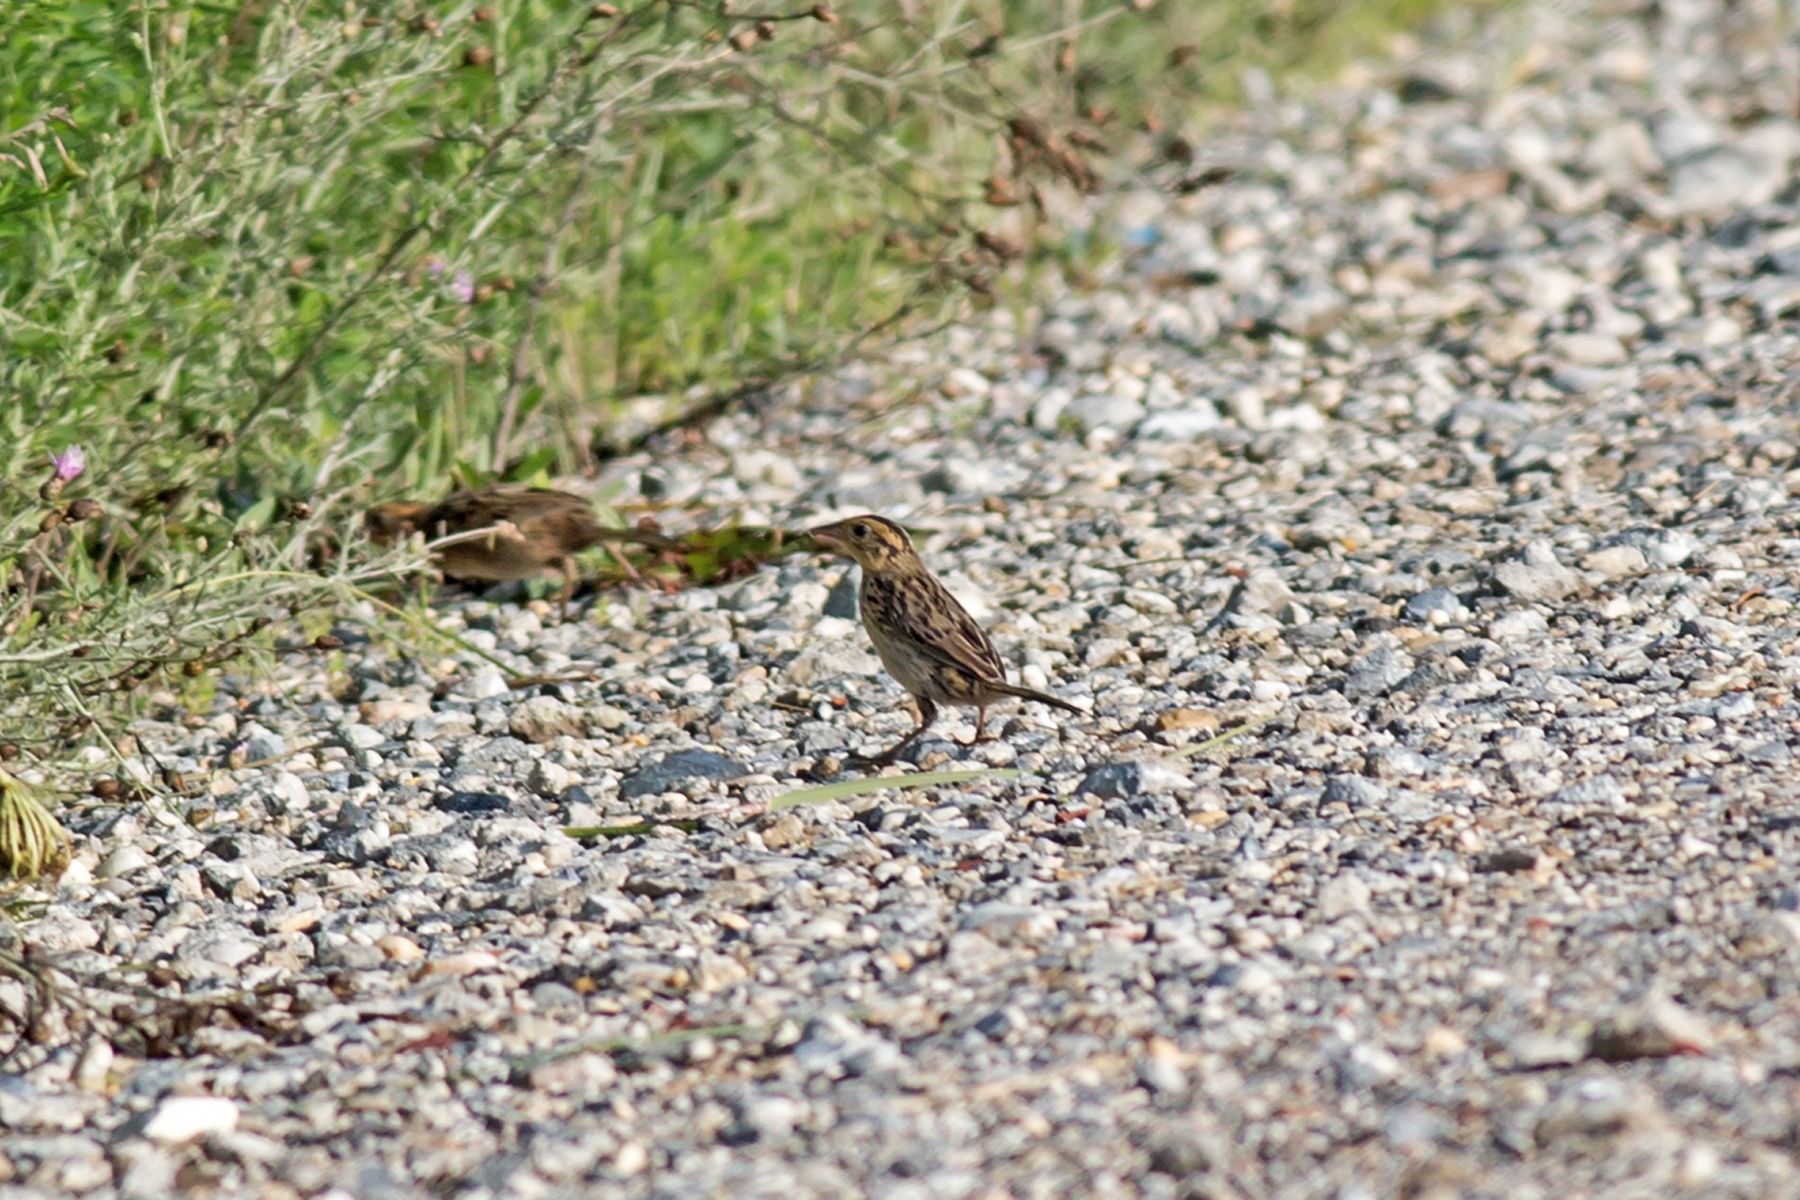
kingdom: Animalia
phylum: Chordata
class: Aves
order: Passeriformes
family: Passerellidae
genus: Ammospiza
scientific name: Ammospiza caudacuta
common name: Saltmarsh sparrow
